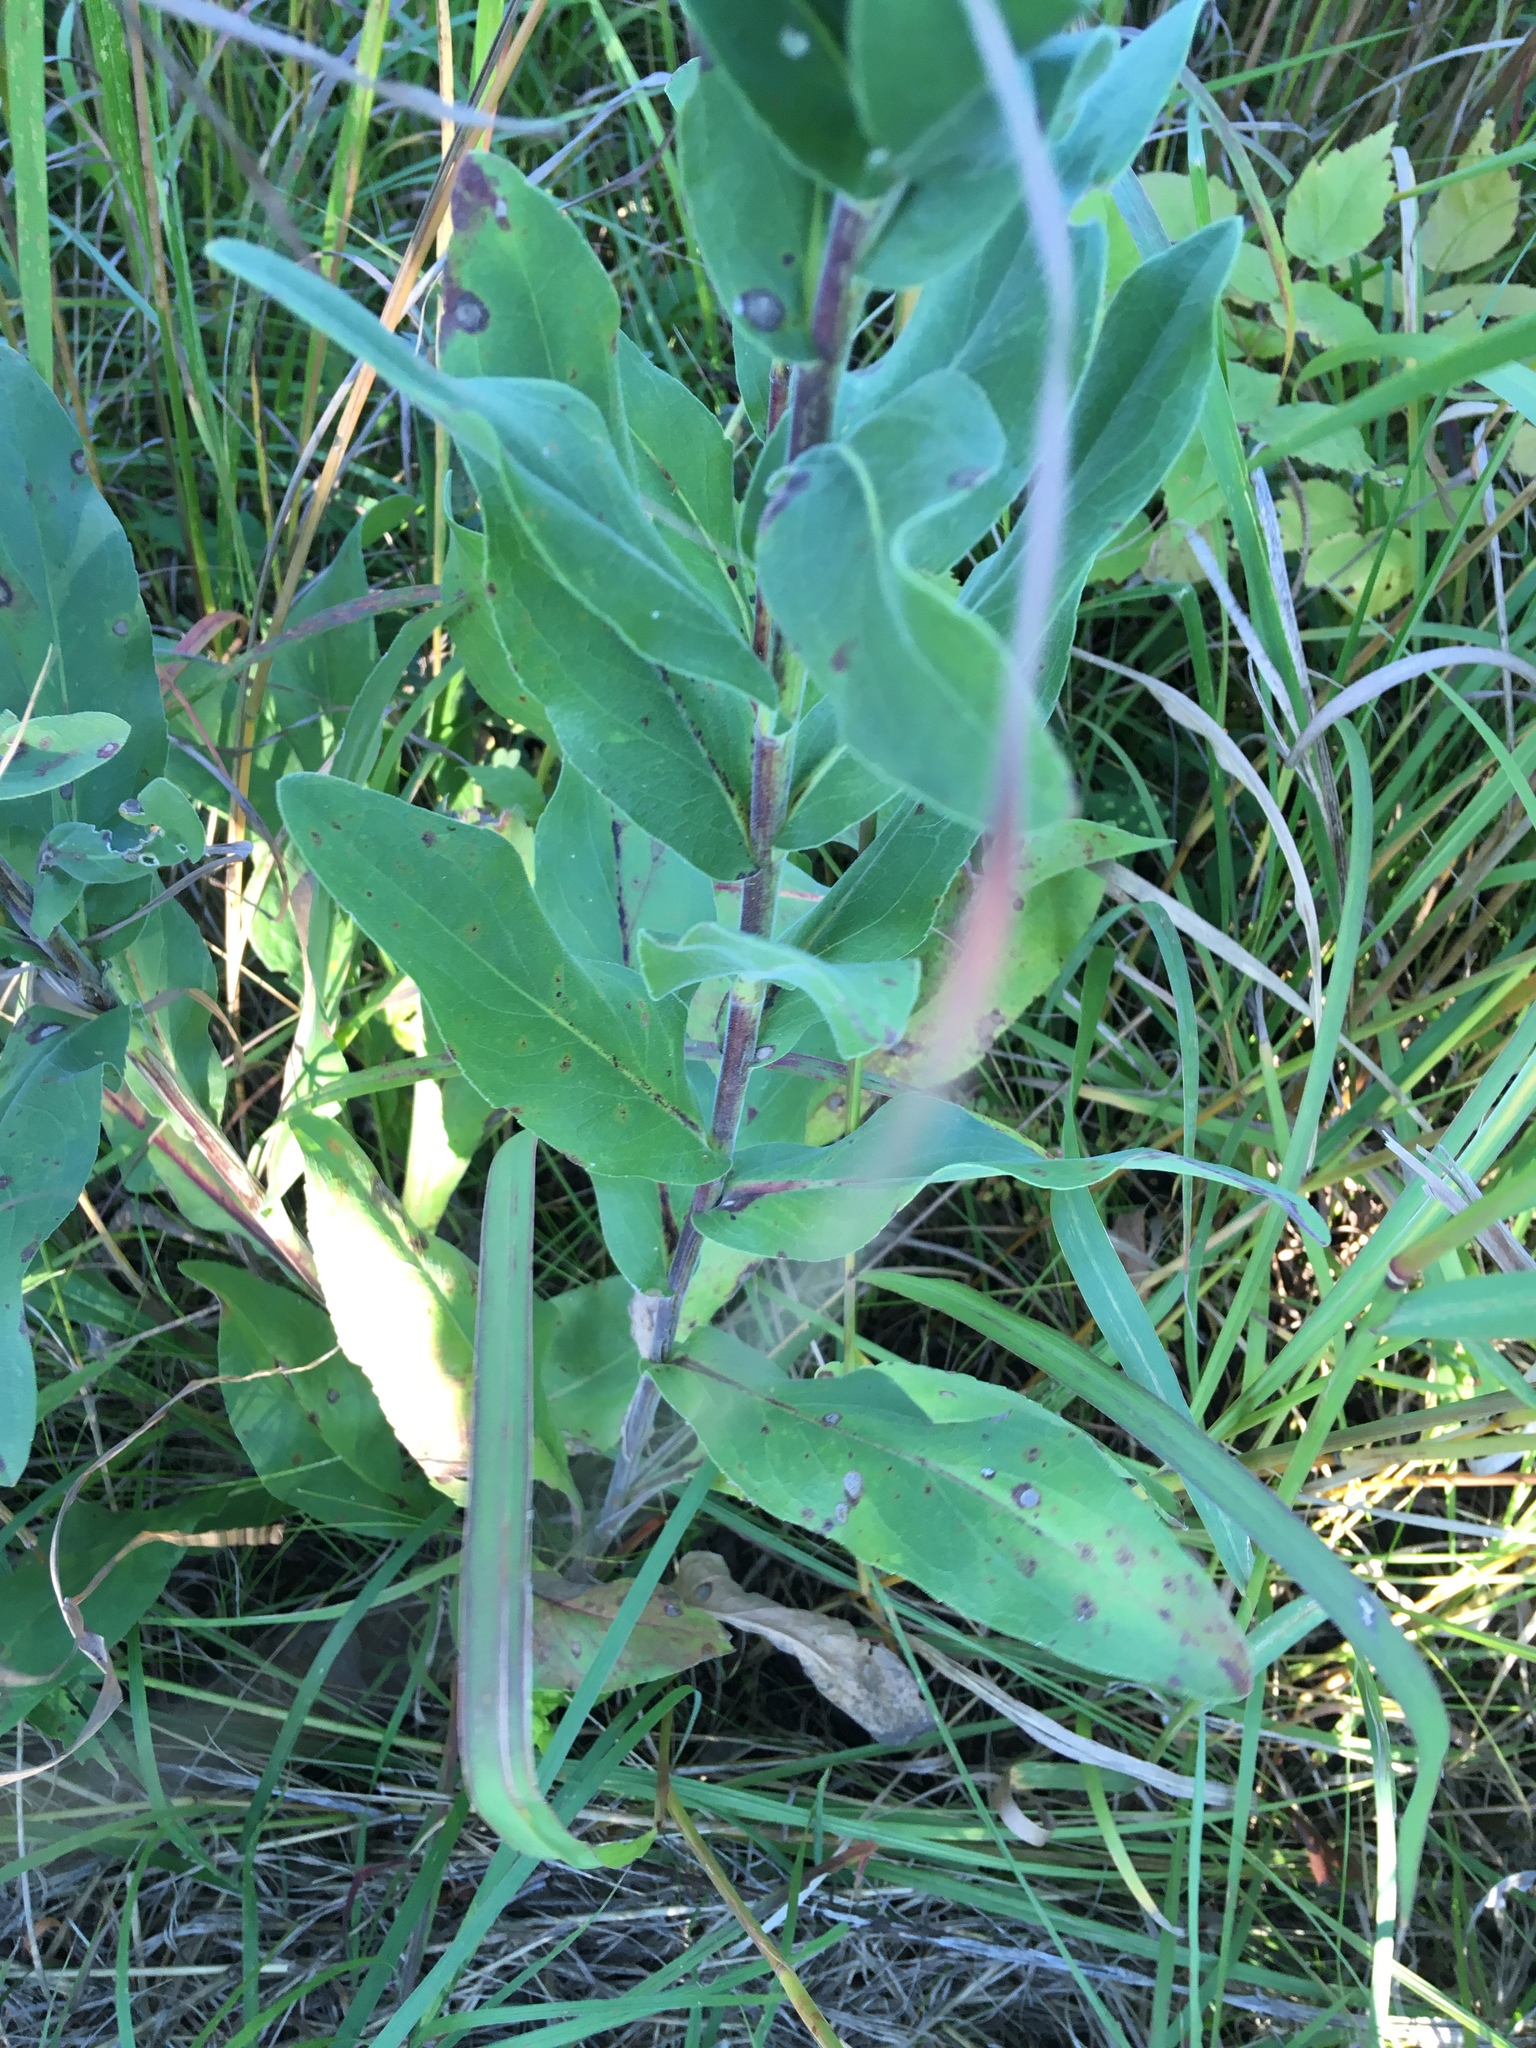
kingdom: Plantae
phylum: Tracheophyta
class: Magnoliopsida
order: Asterales
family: Asteraceae
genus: Solidago
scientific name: Solidago rigida
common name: Rigid goldenrod
